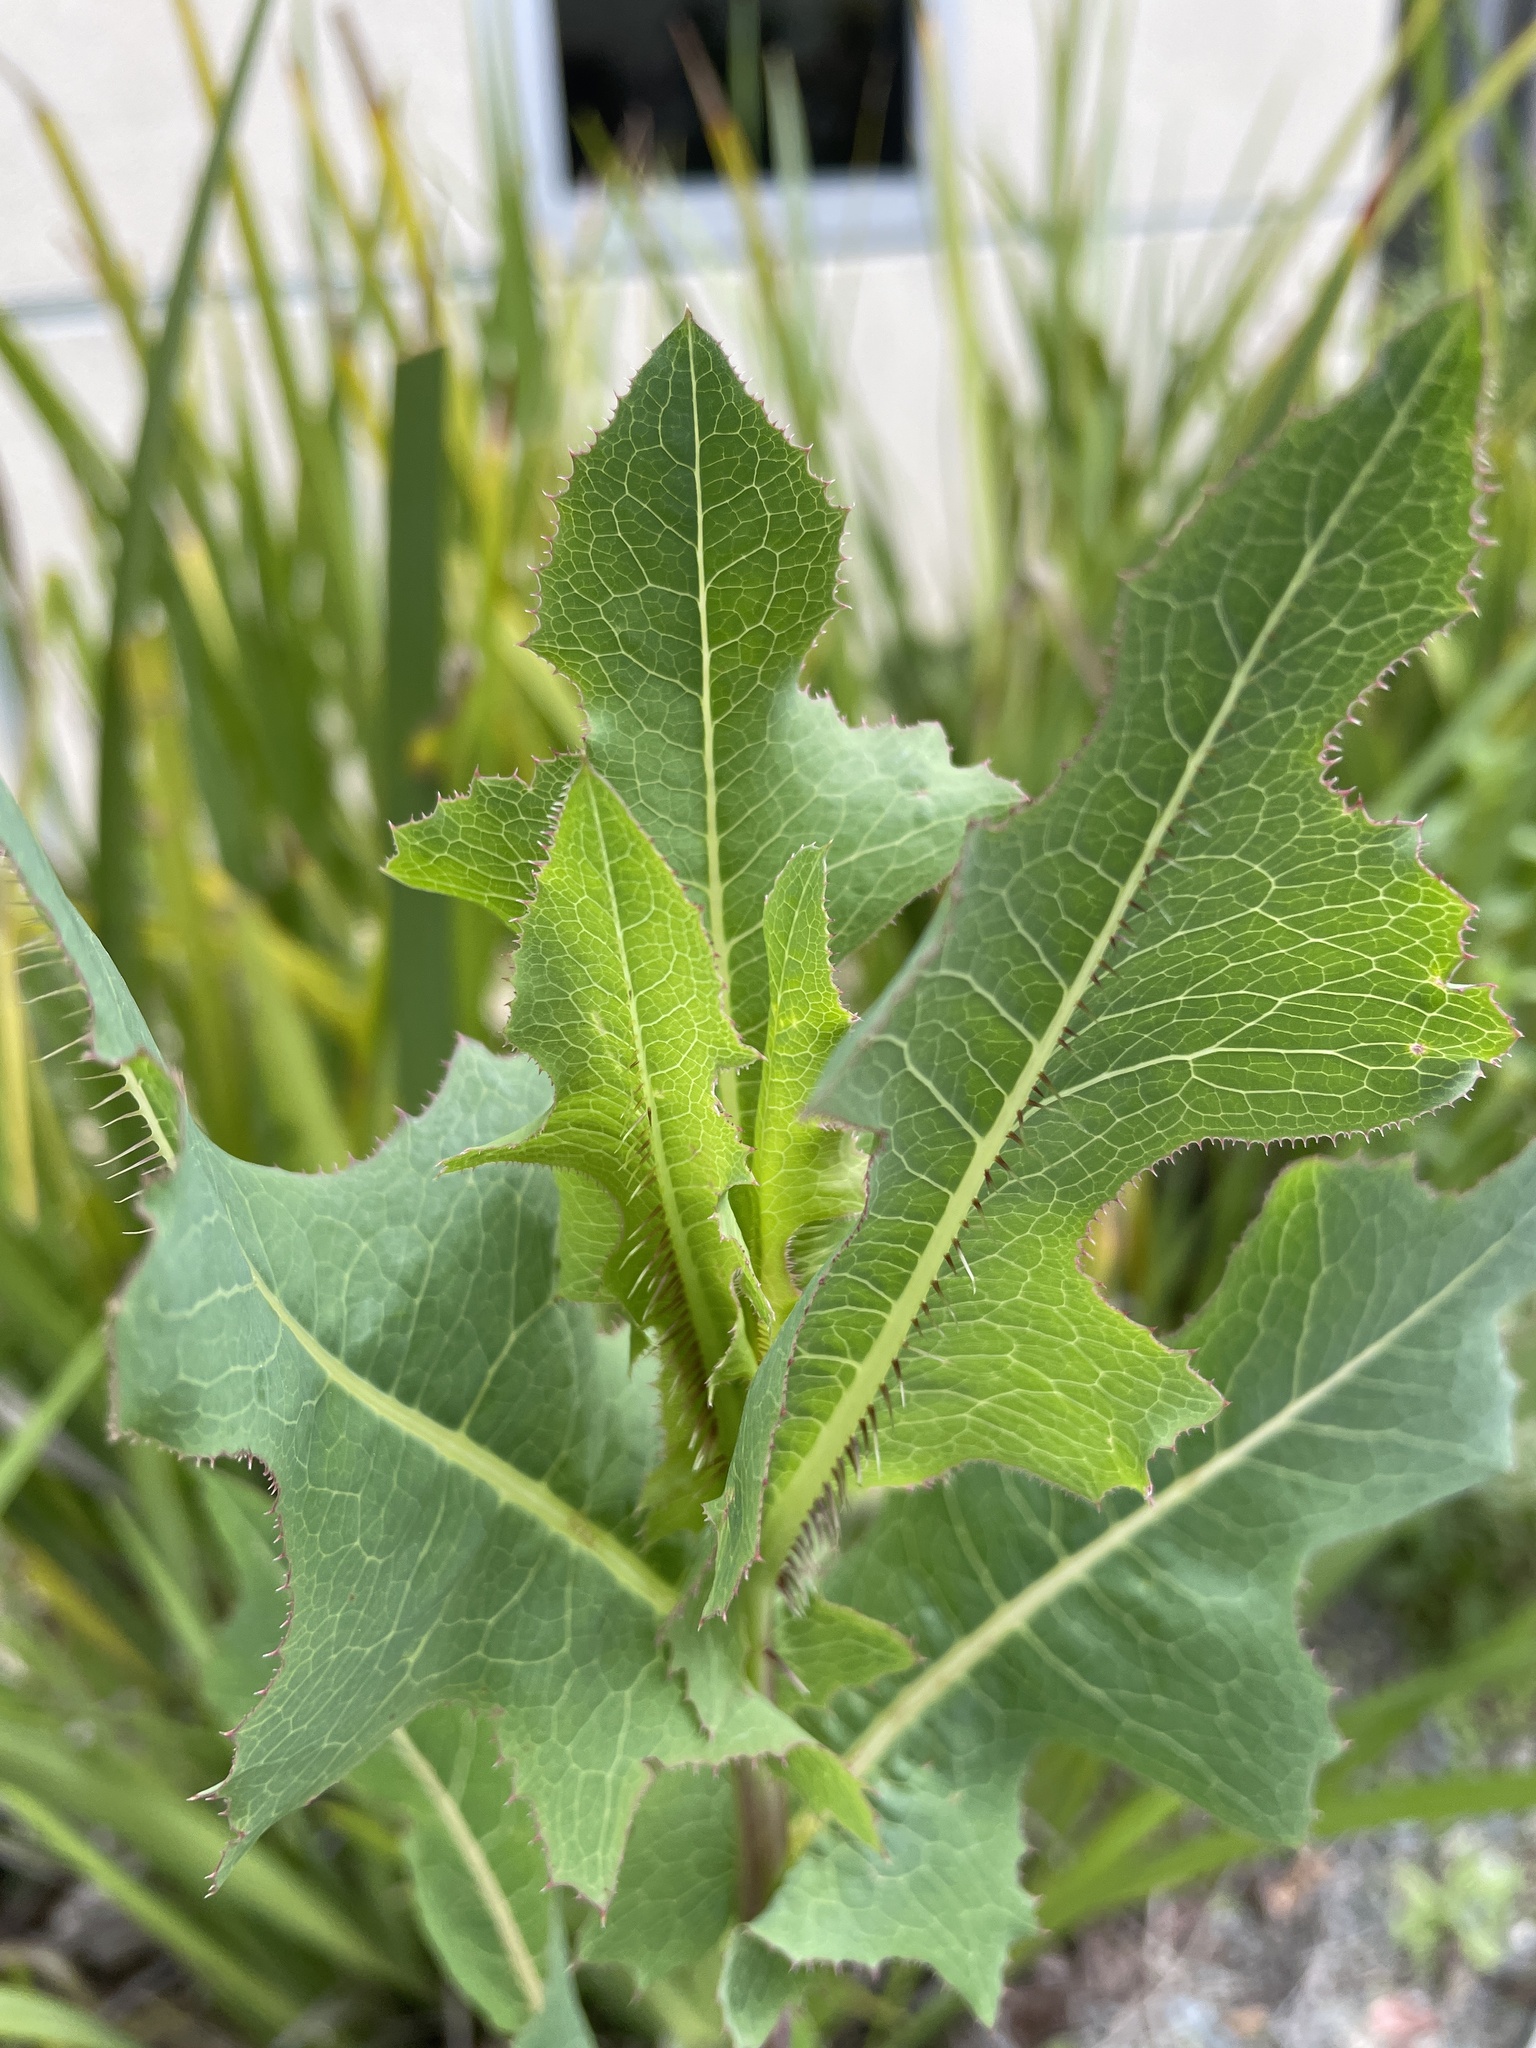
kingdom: Plantae
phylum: Tracheophyta
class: Magnoliopsida
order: Asterales
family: Asteraceae
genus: Lactuca
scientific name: Lactuca serriola
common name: Prickly lettuce
